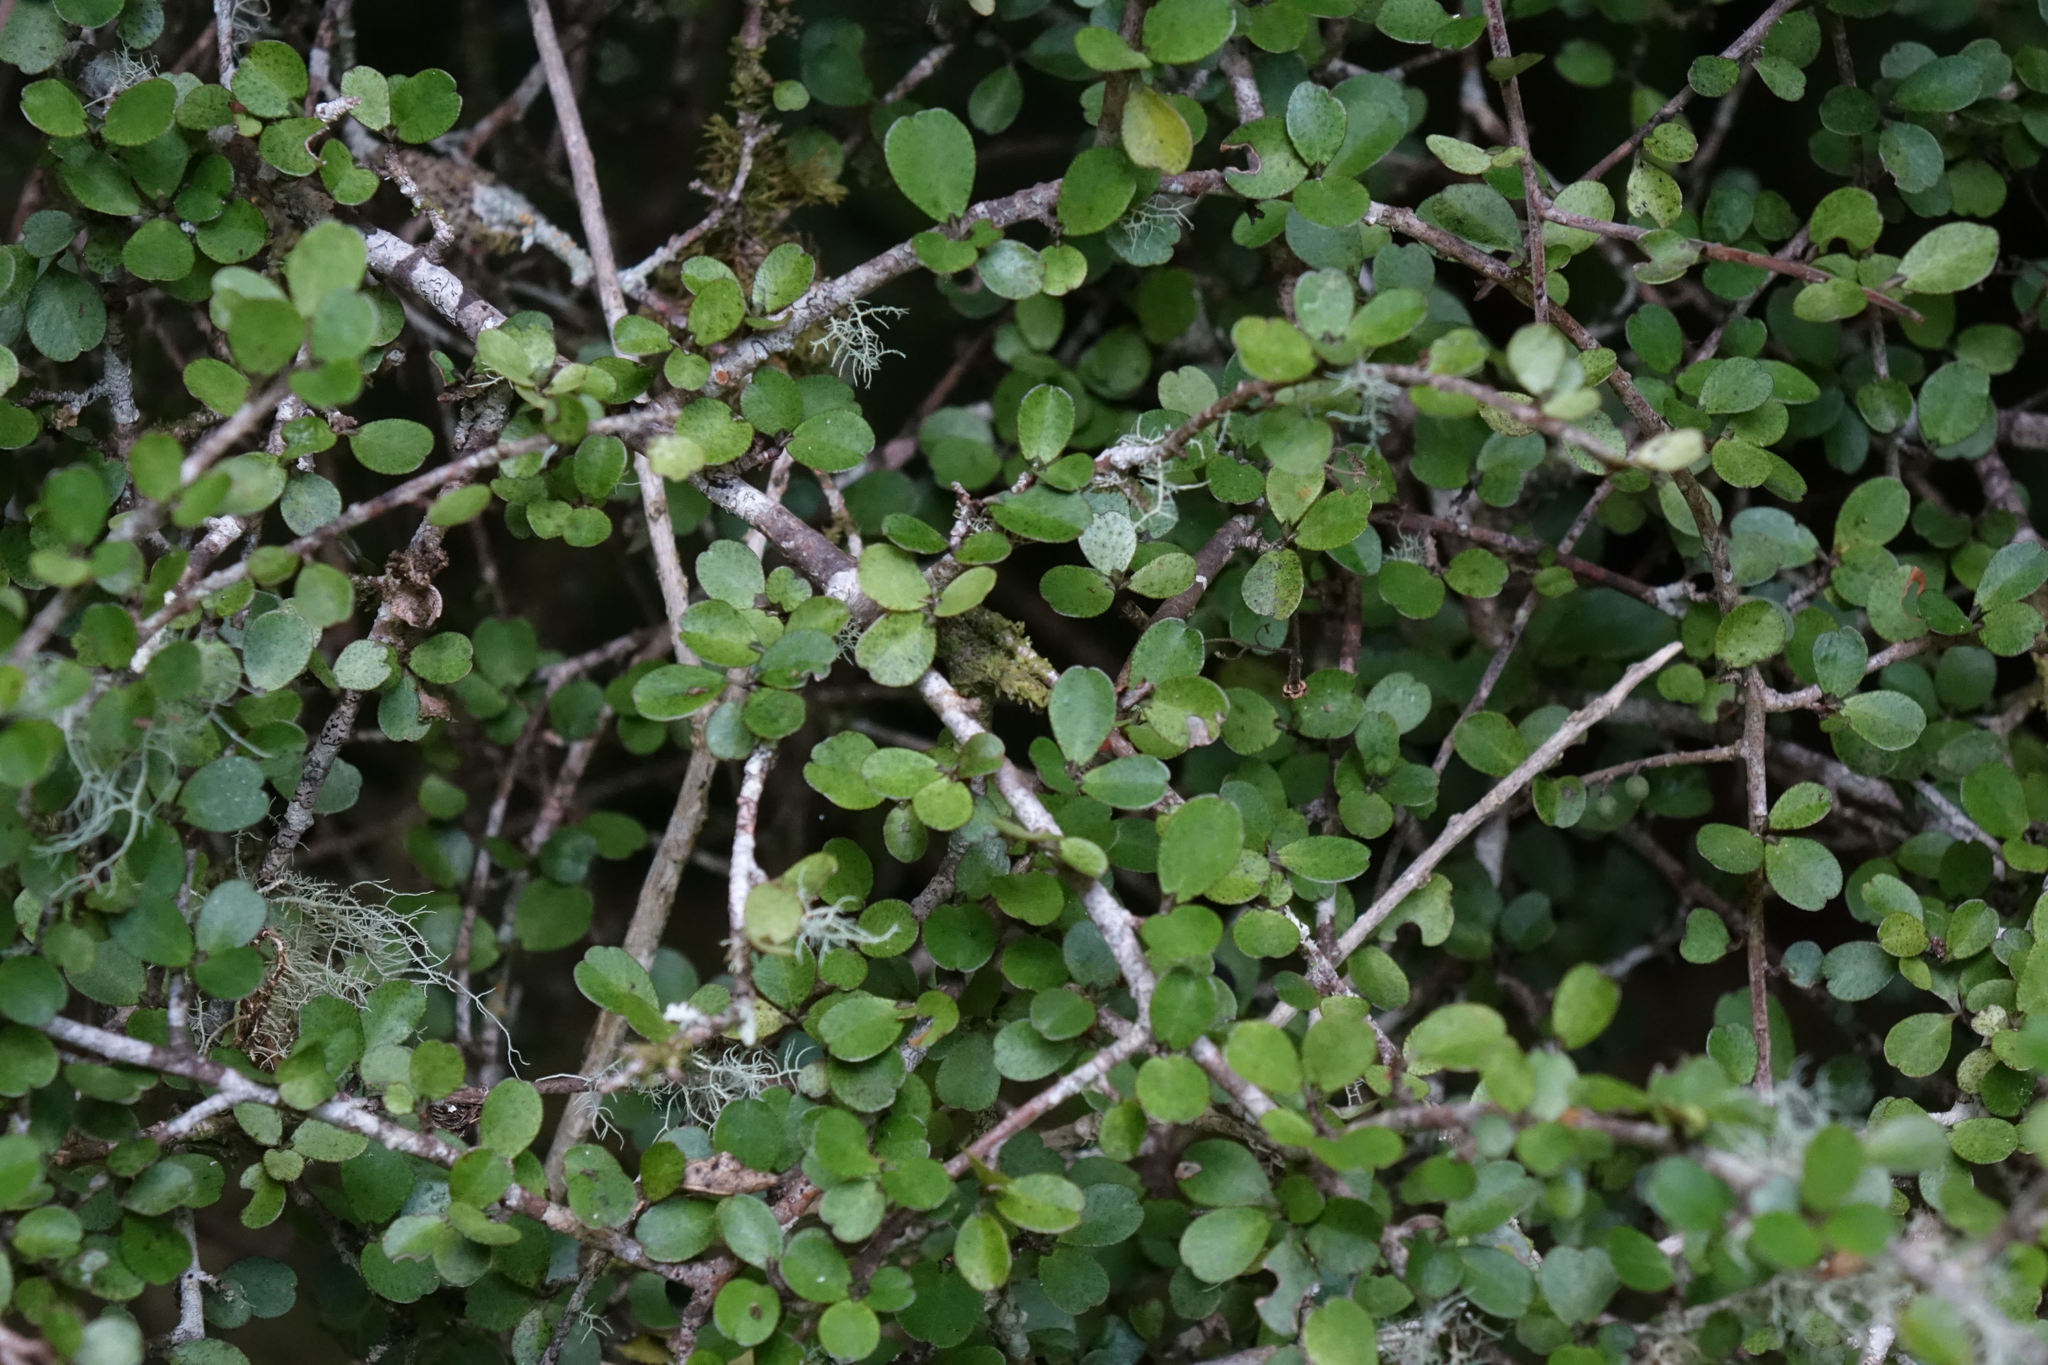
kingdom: Plantae
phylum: Tracheophyta
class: Magnoliopsida
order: Ericales
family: Primulaceae
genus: Myrsine
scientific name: Myrsine divaricata
